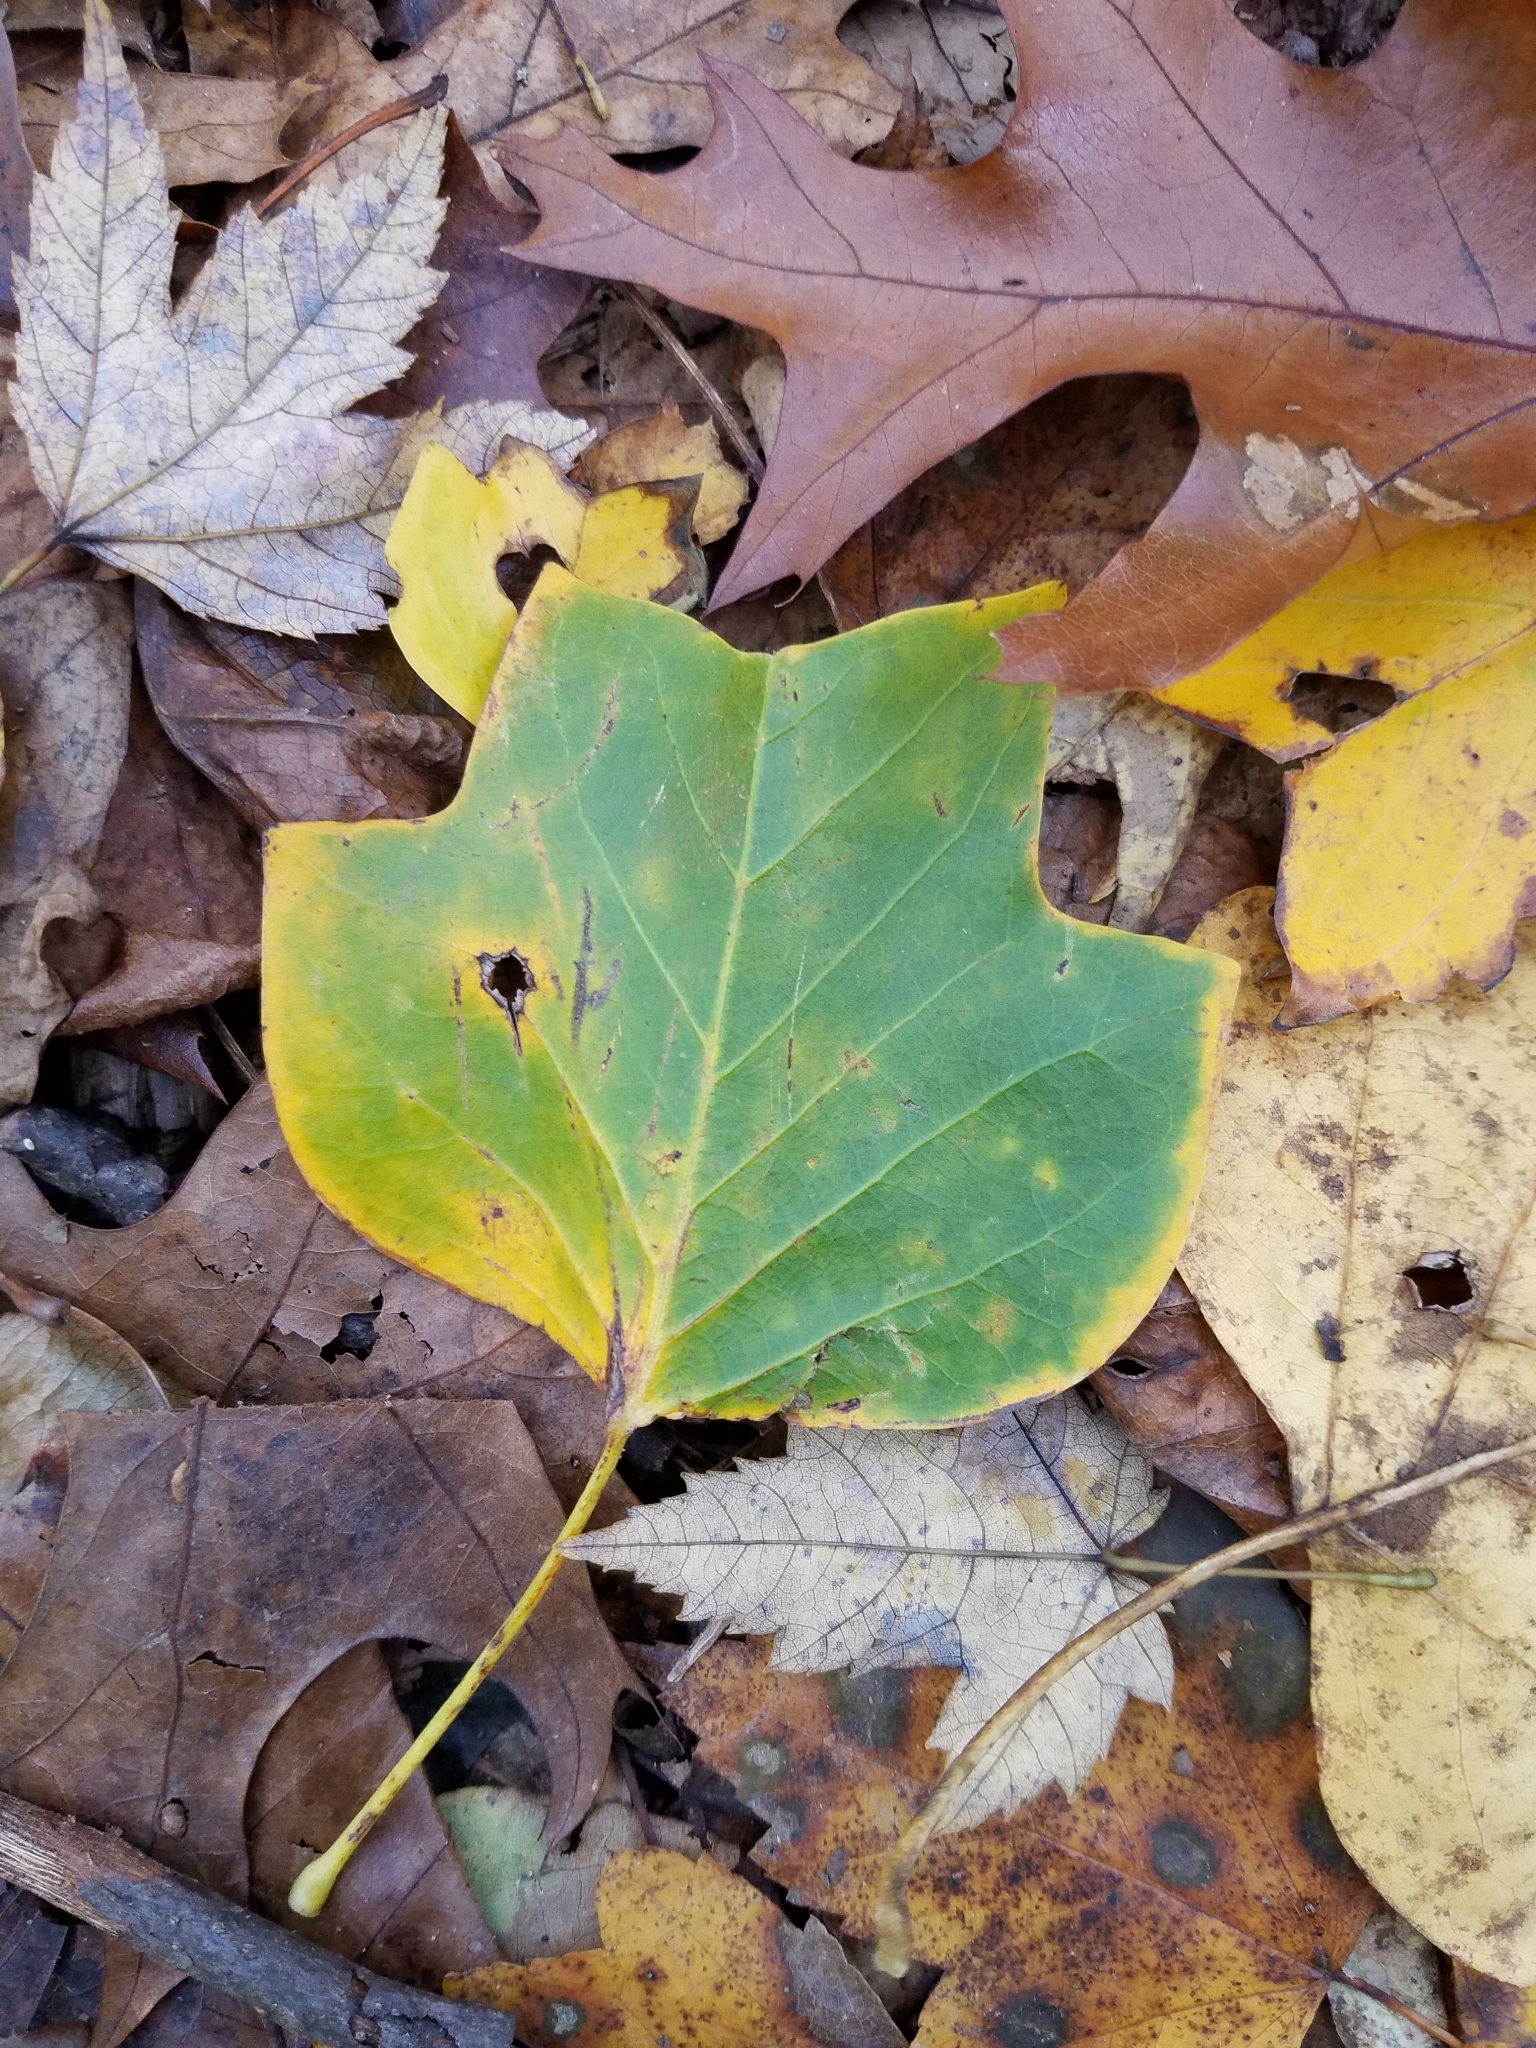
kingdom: Plantae
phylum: Tracheophyta
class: Magnoliopsida
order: Magnoliales
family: Magnoliaceae
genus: Liriodendron
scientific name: Liriodendron tulipifera
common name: Tulip tree
